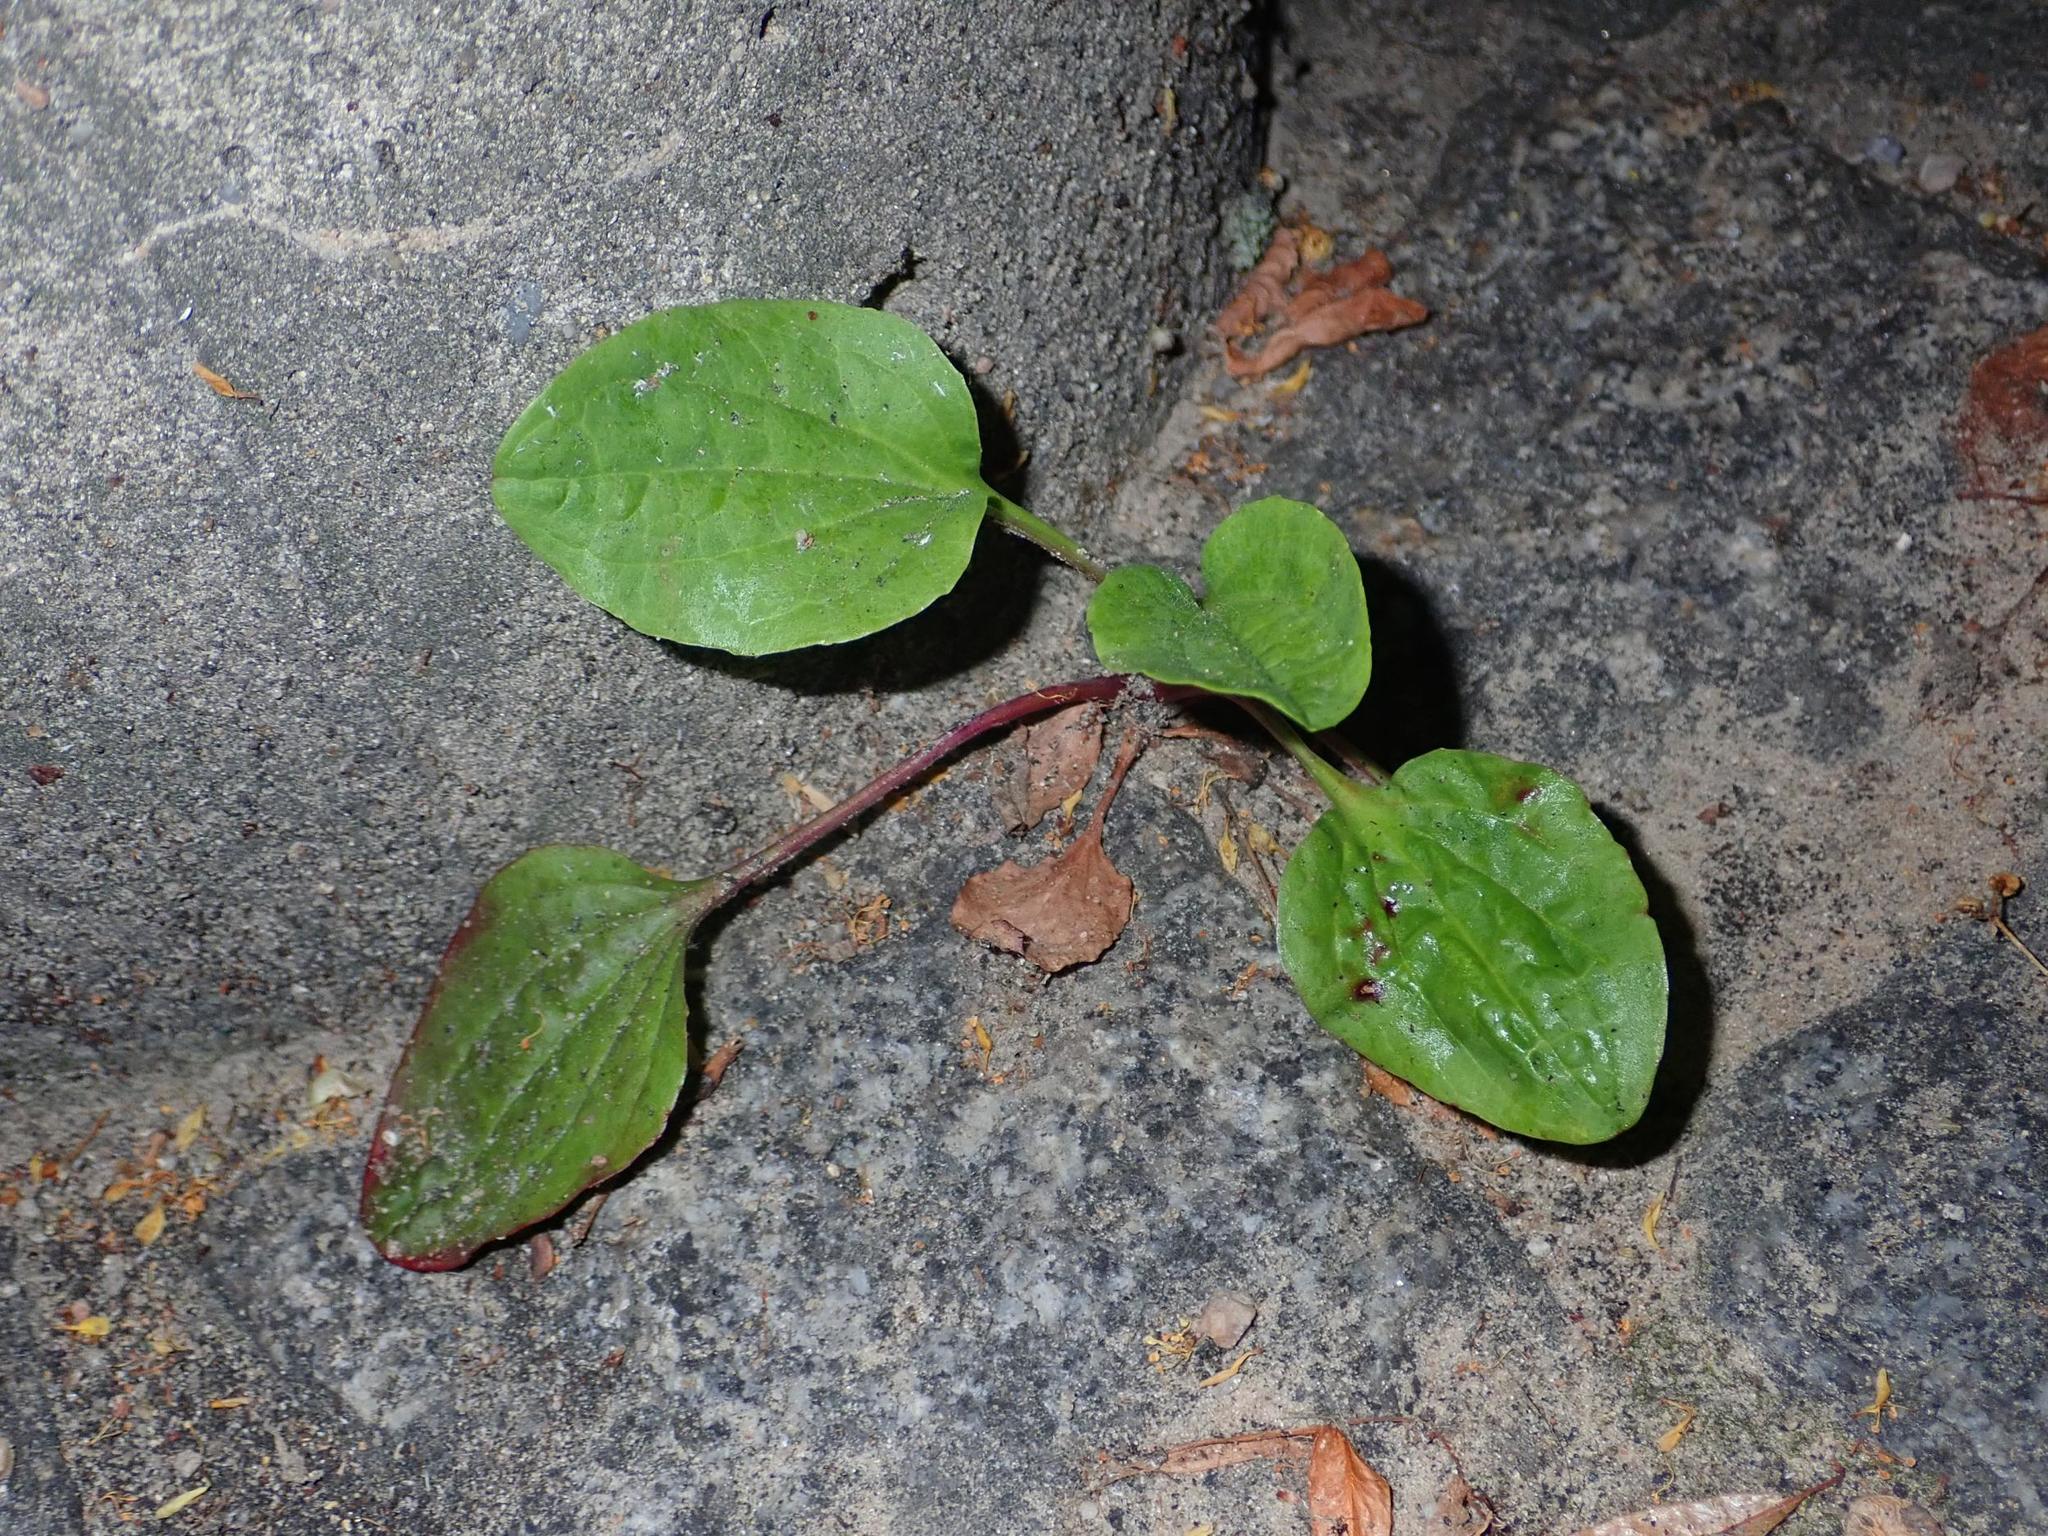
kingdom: Plantae
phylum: Tracheophyta
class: Magnoliopsida
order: Lamiales
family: Plantaginaceae
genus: Plantago
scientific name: Plantago major
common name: Common plantain
